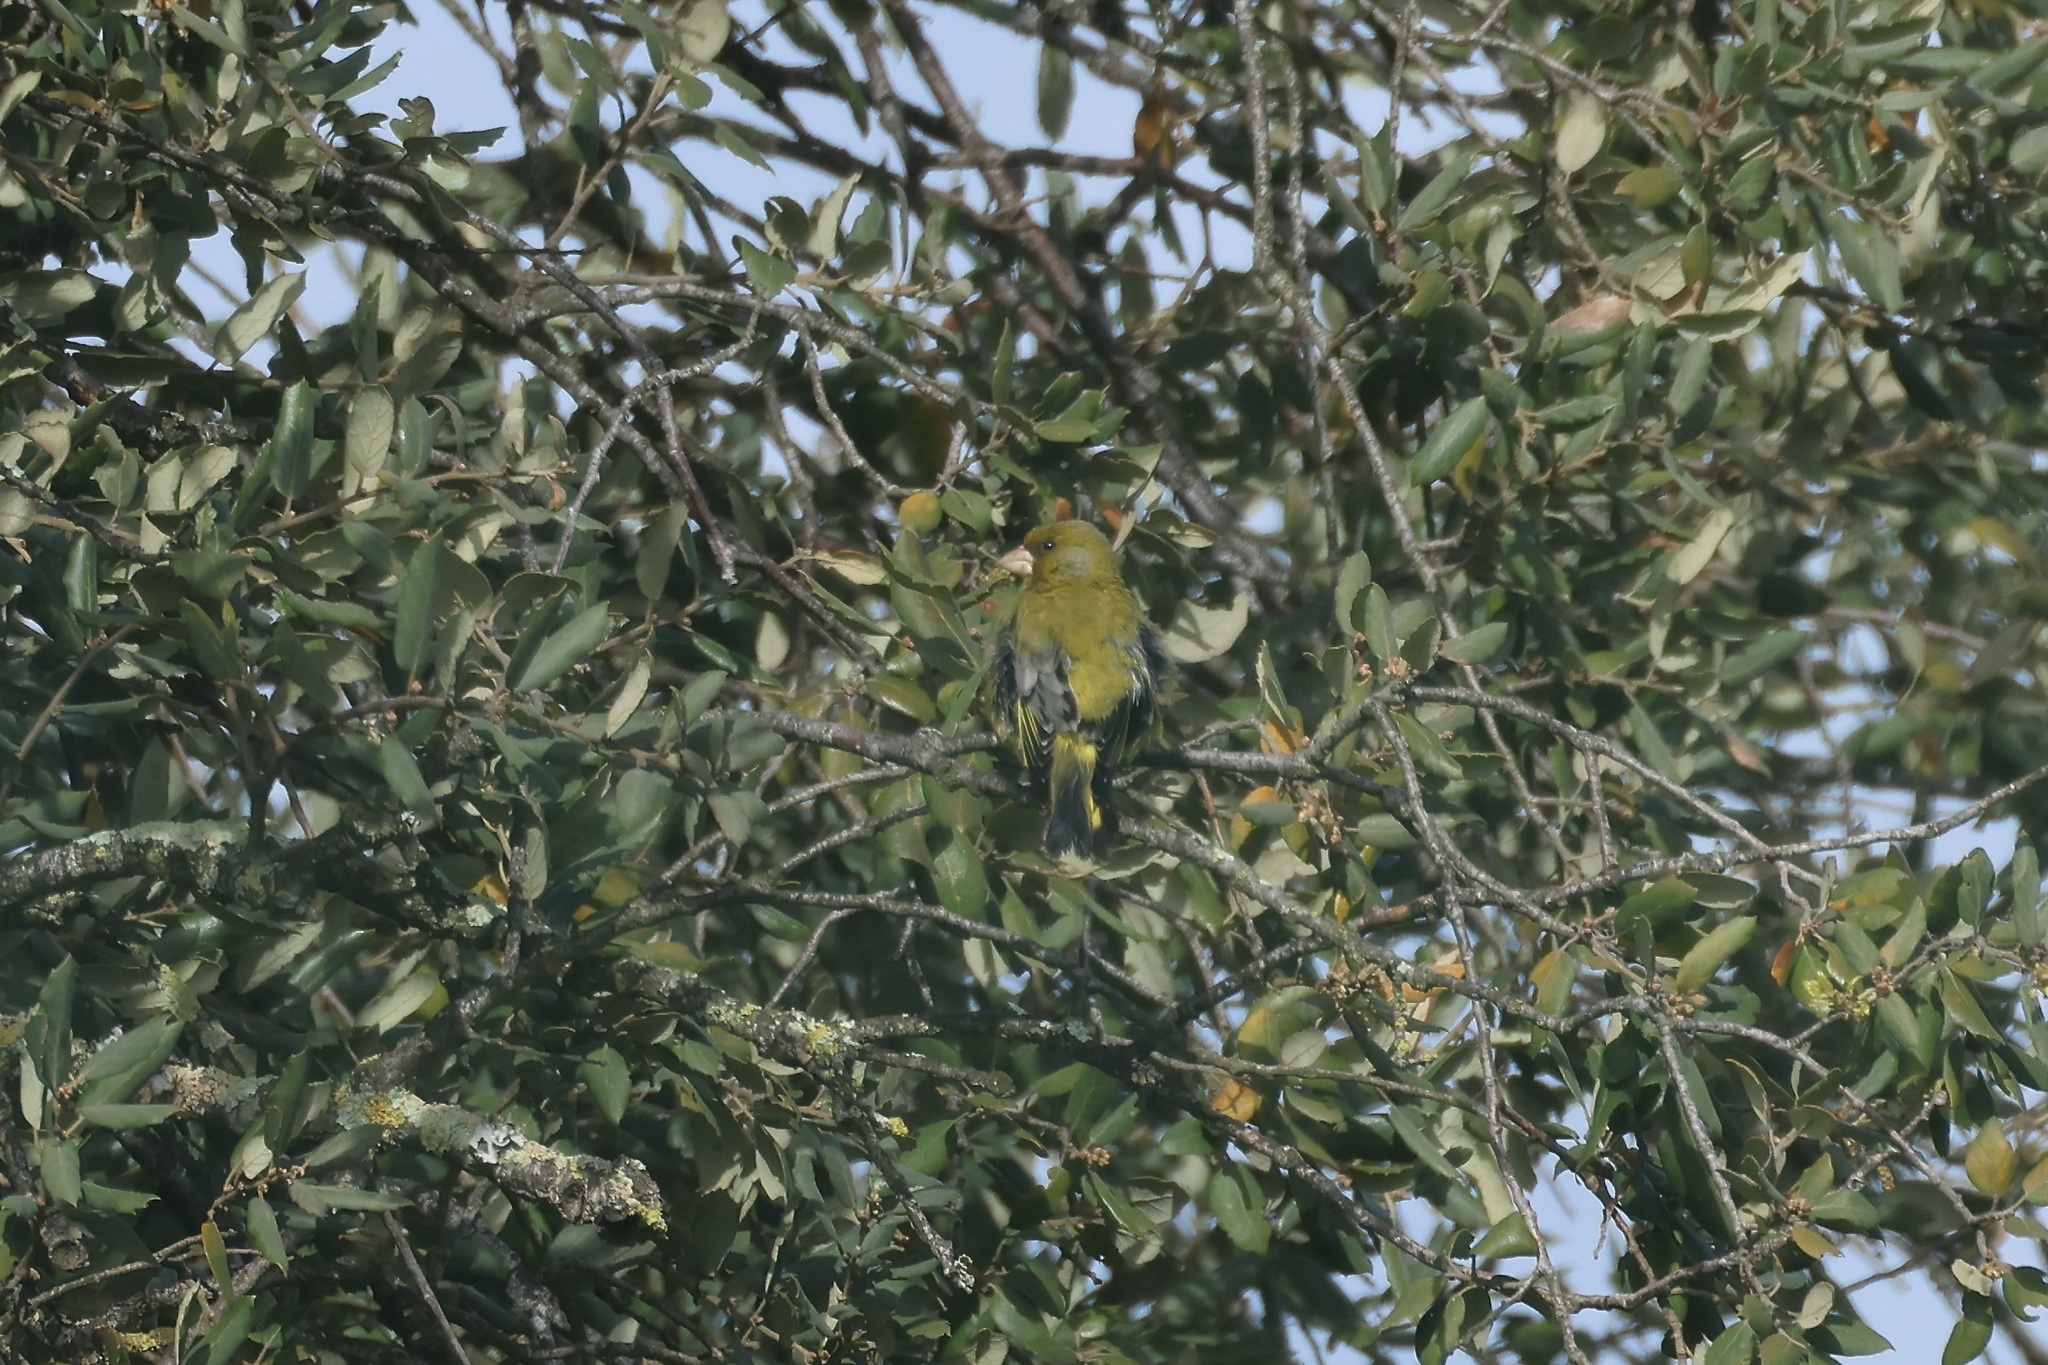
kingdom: Plantae
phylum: Tracheophyta
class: Liliopsida
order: Poales
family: Poaceae
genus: Chloris
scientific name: Chloris chloris
